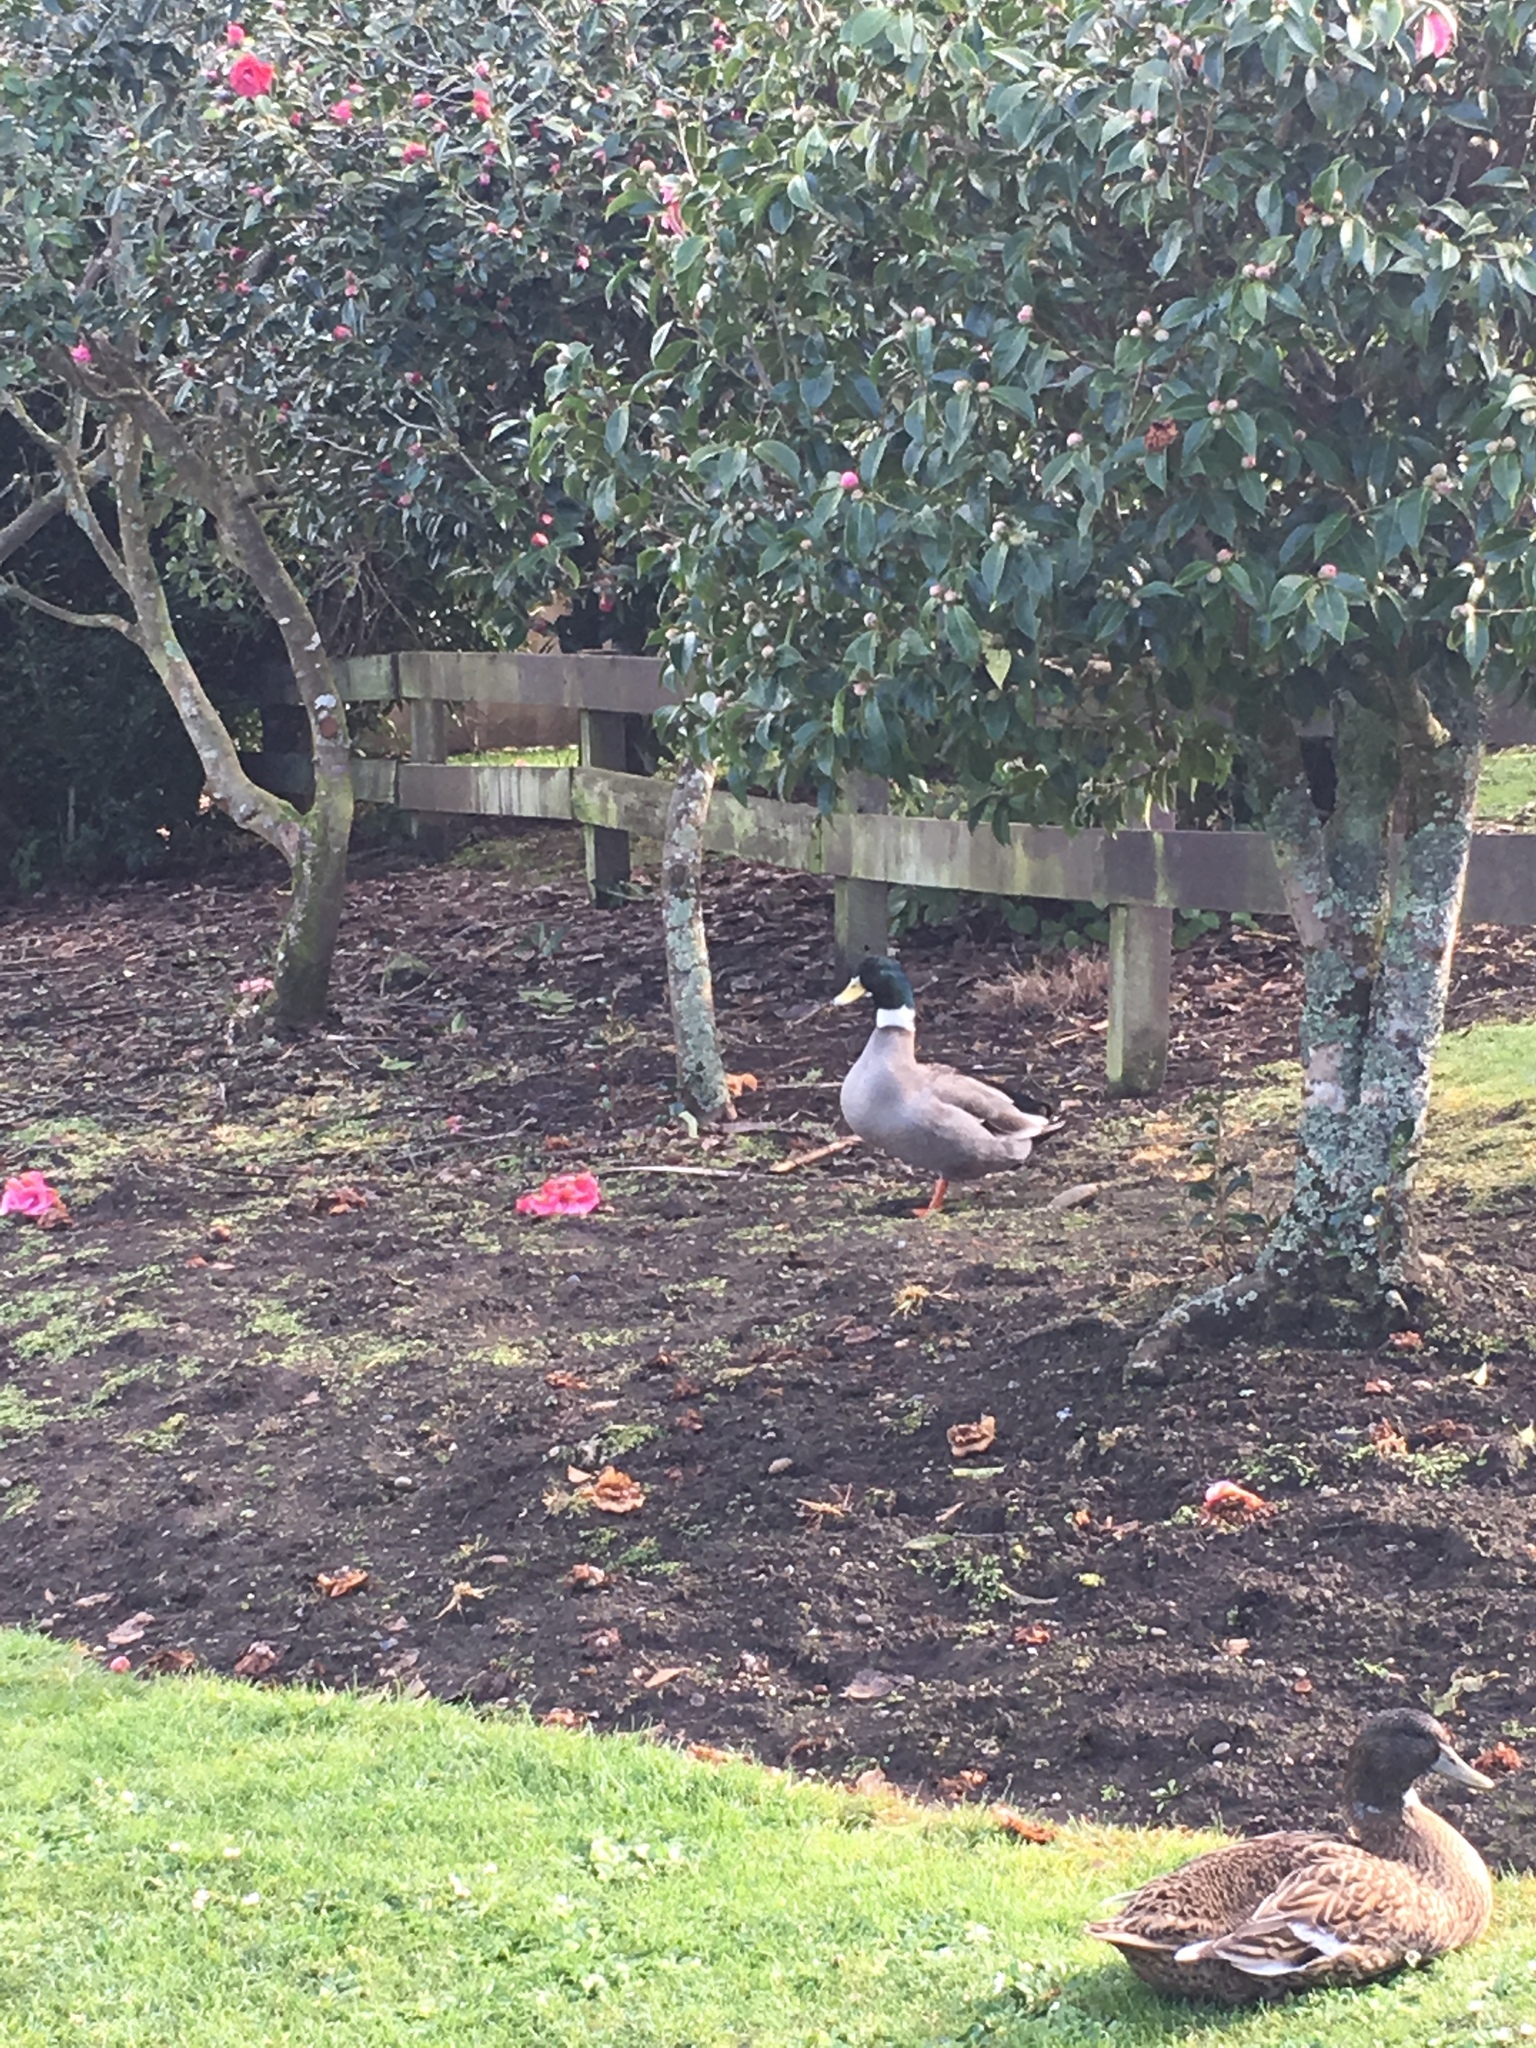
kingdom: Animalia
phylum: Chordata
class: Aves
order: Anseriformes
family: Anatidae
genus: Anas
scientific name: Anas platyrhynchos
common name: Mallard
